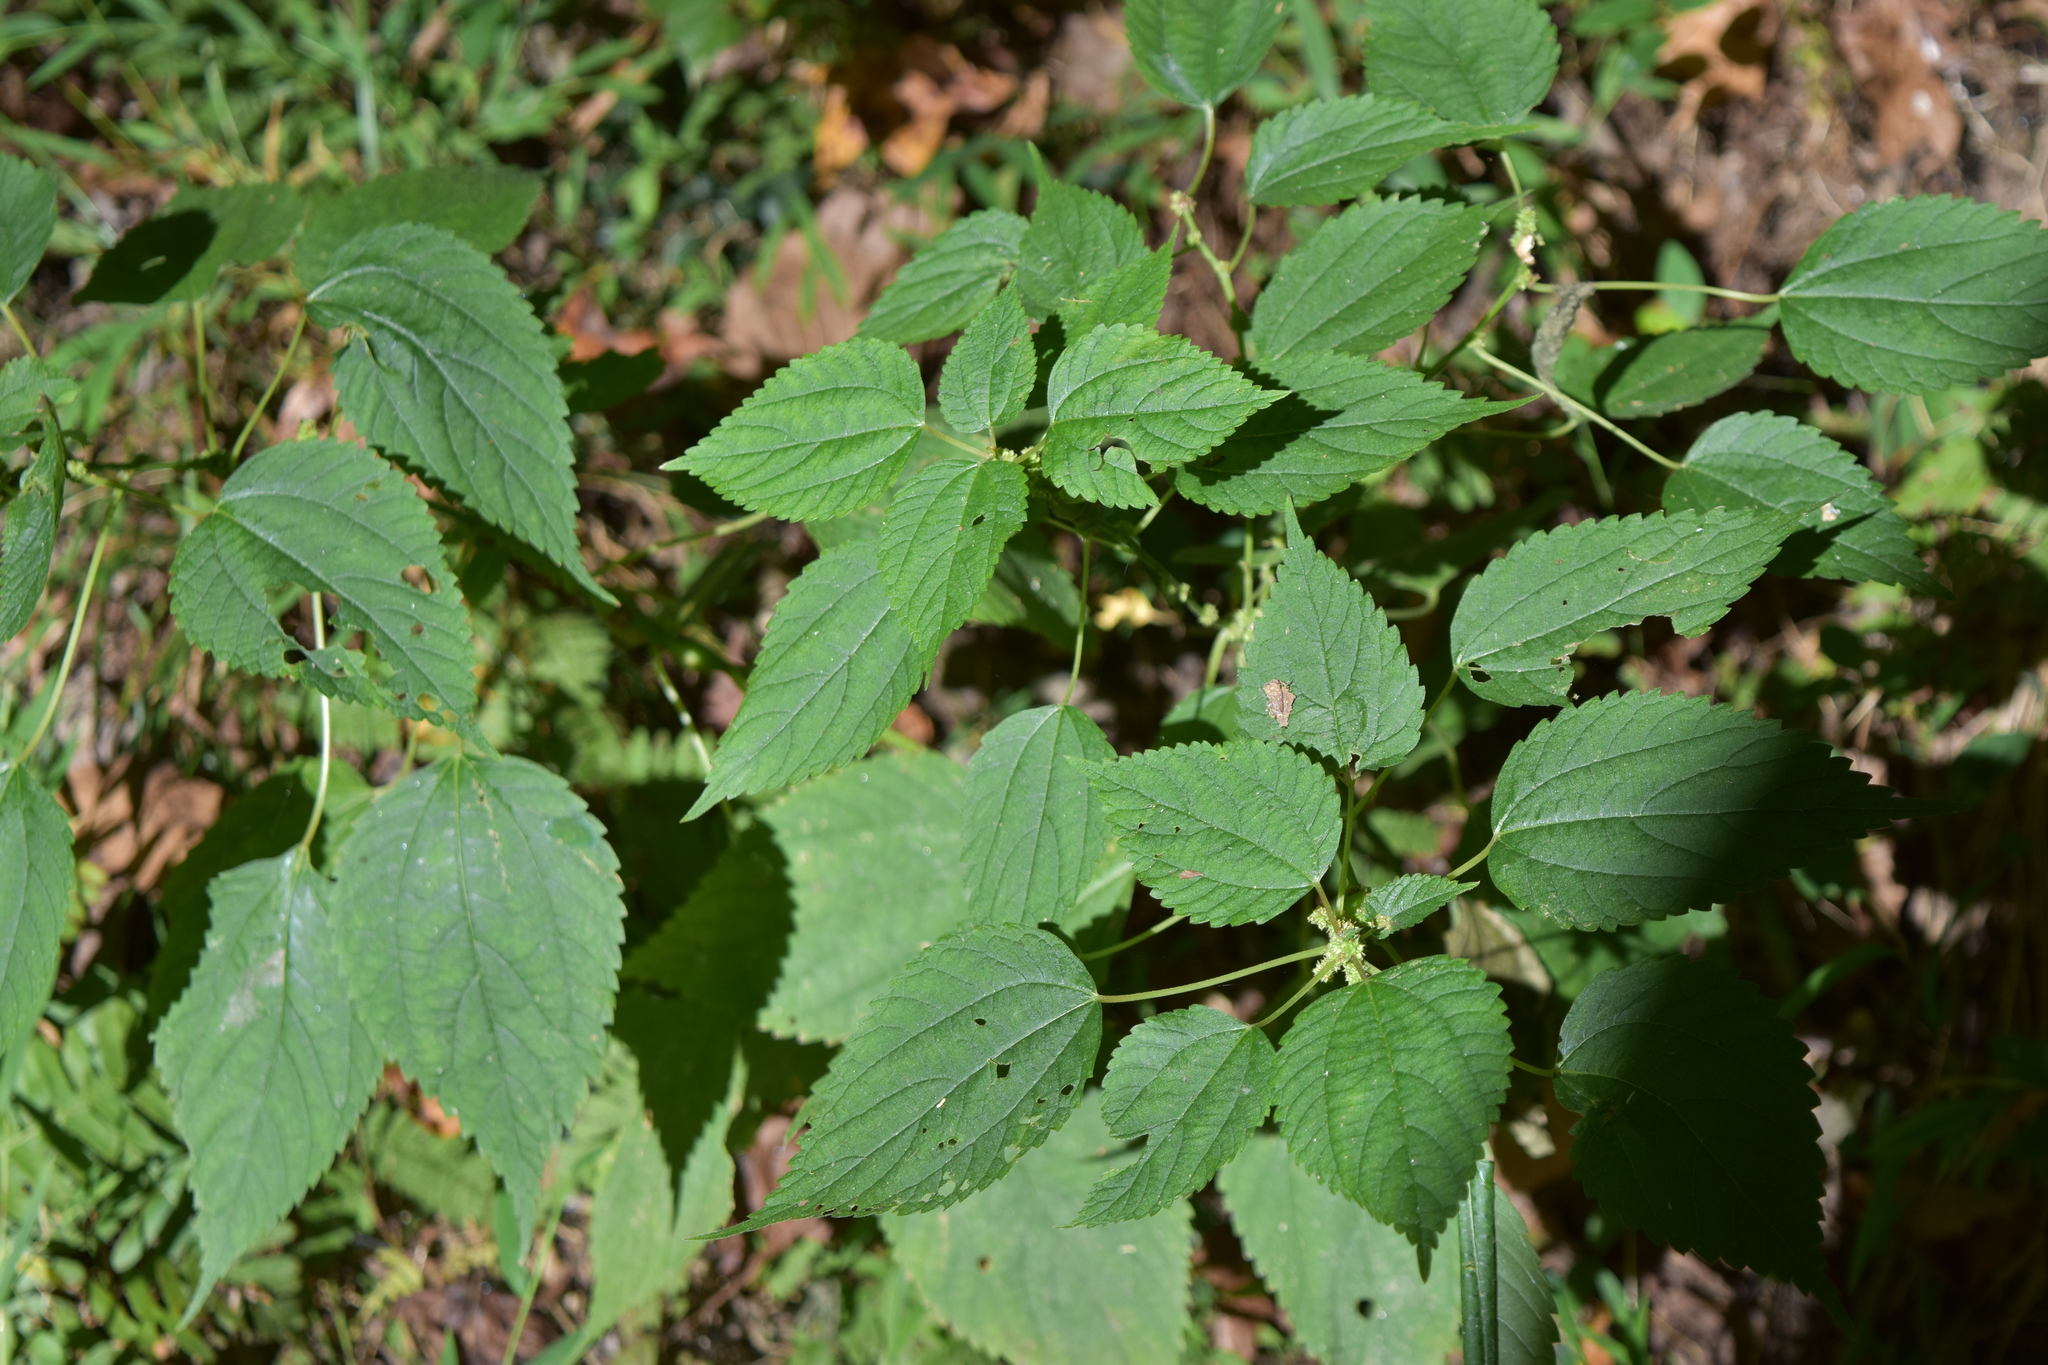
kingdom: Plantae
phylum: Tracheophyta
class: Magnoliopsida
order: Rosales
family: Urticaceae
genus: Boehmeria
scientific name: Boehmeria cylindrica
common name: Bog-hemp
